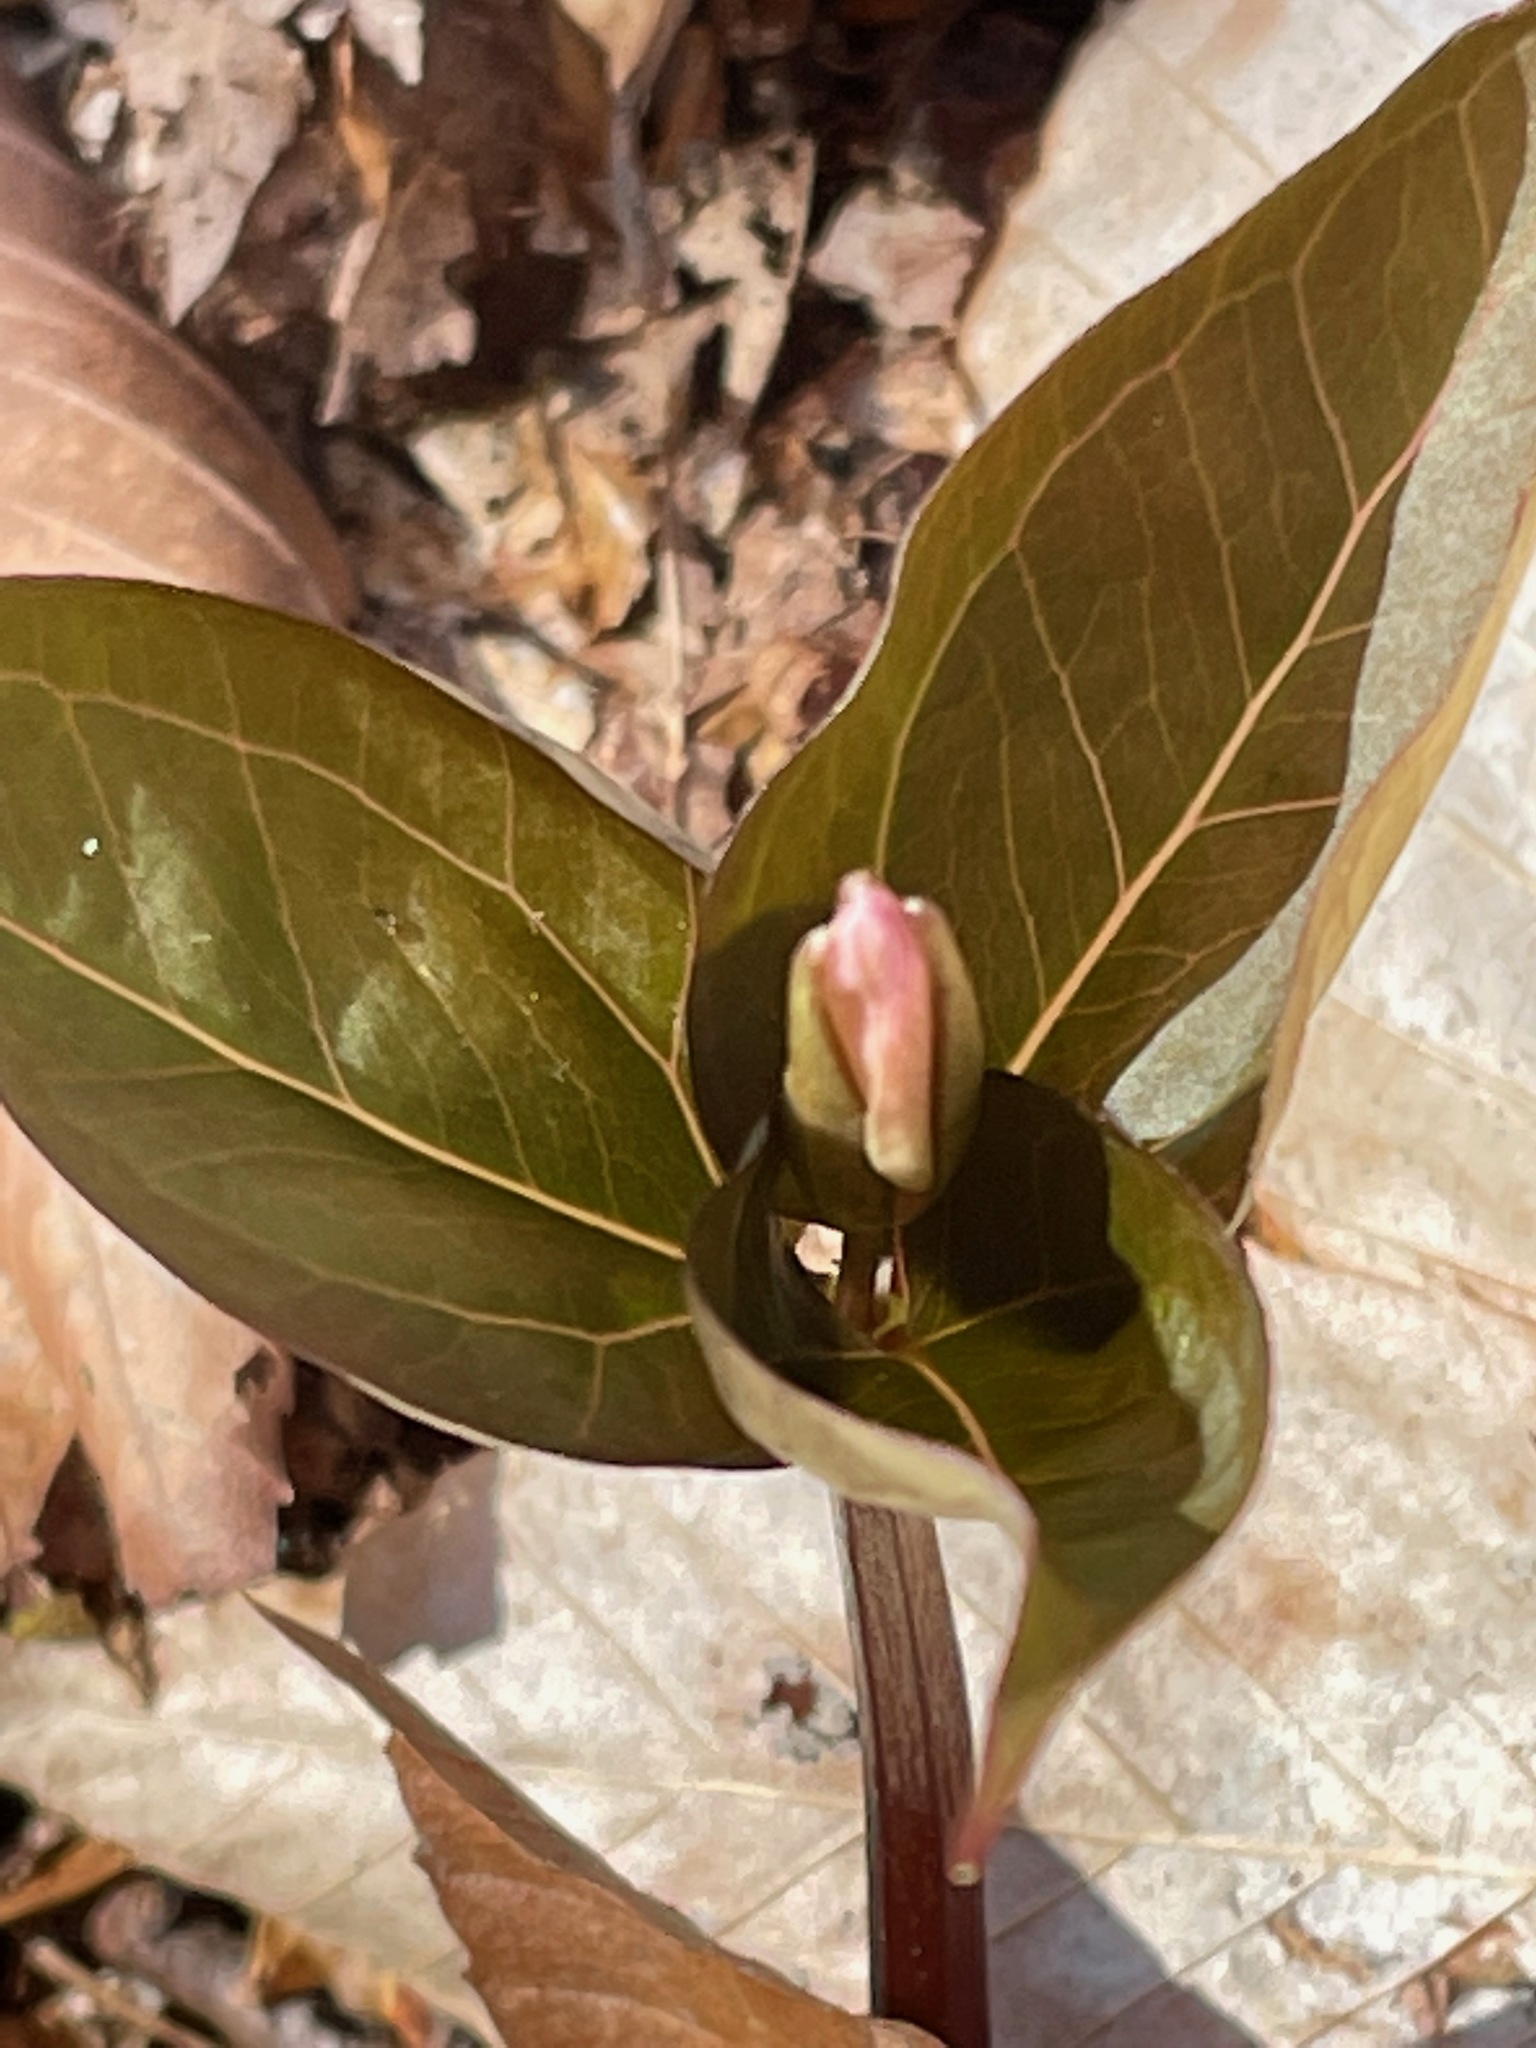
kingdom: Plantae
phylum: Tracheophyta
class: Liliopsida
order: Liliales
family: Melanthiaceae
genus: Trillium
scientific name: Trillium undulatum
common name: Paint trillium
